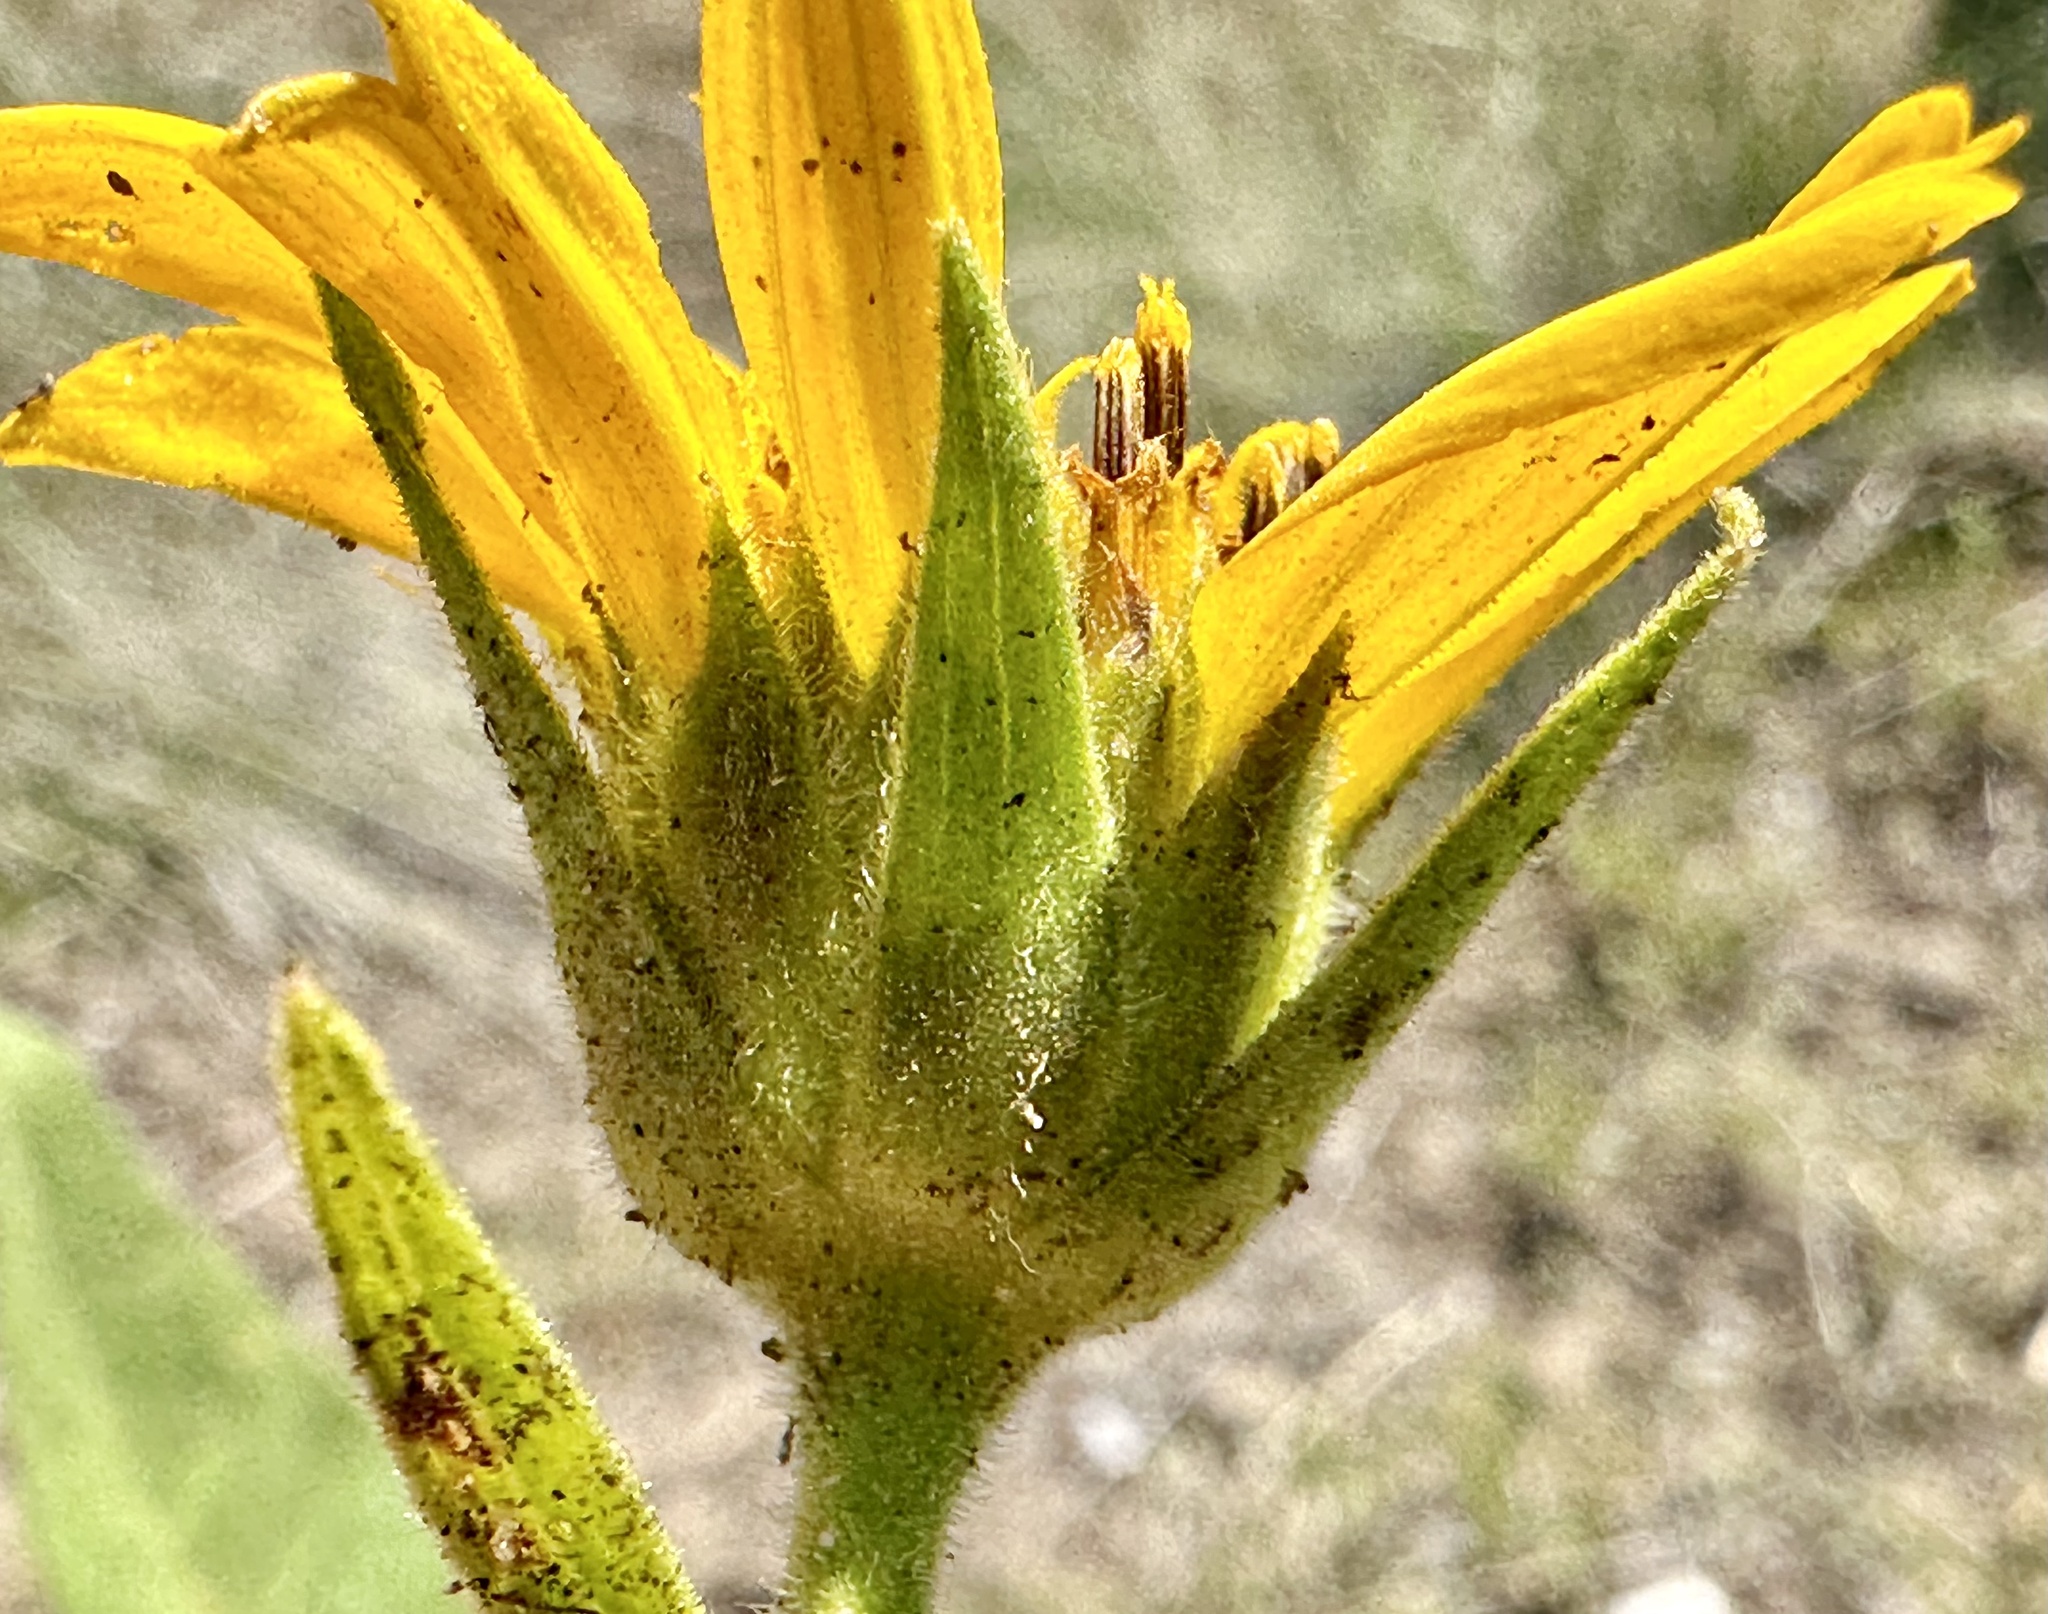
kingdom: Plantae
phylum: Tracheophyta
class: Magnoliopsida
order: Asterales
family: Asteraceae
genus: Balsamorhiza
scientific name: Balsamorhiza careyana
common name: Carey's balsamroot
